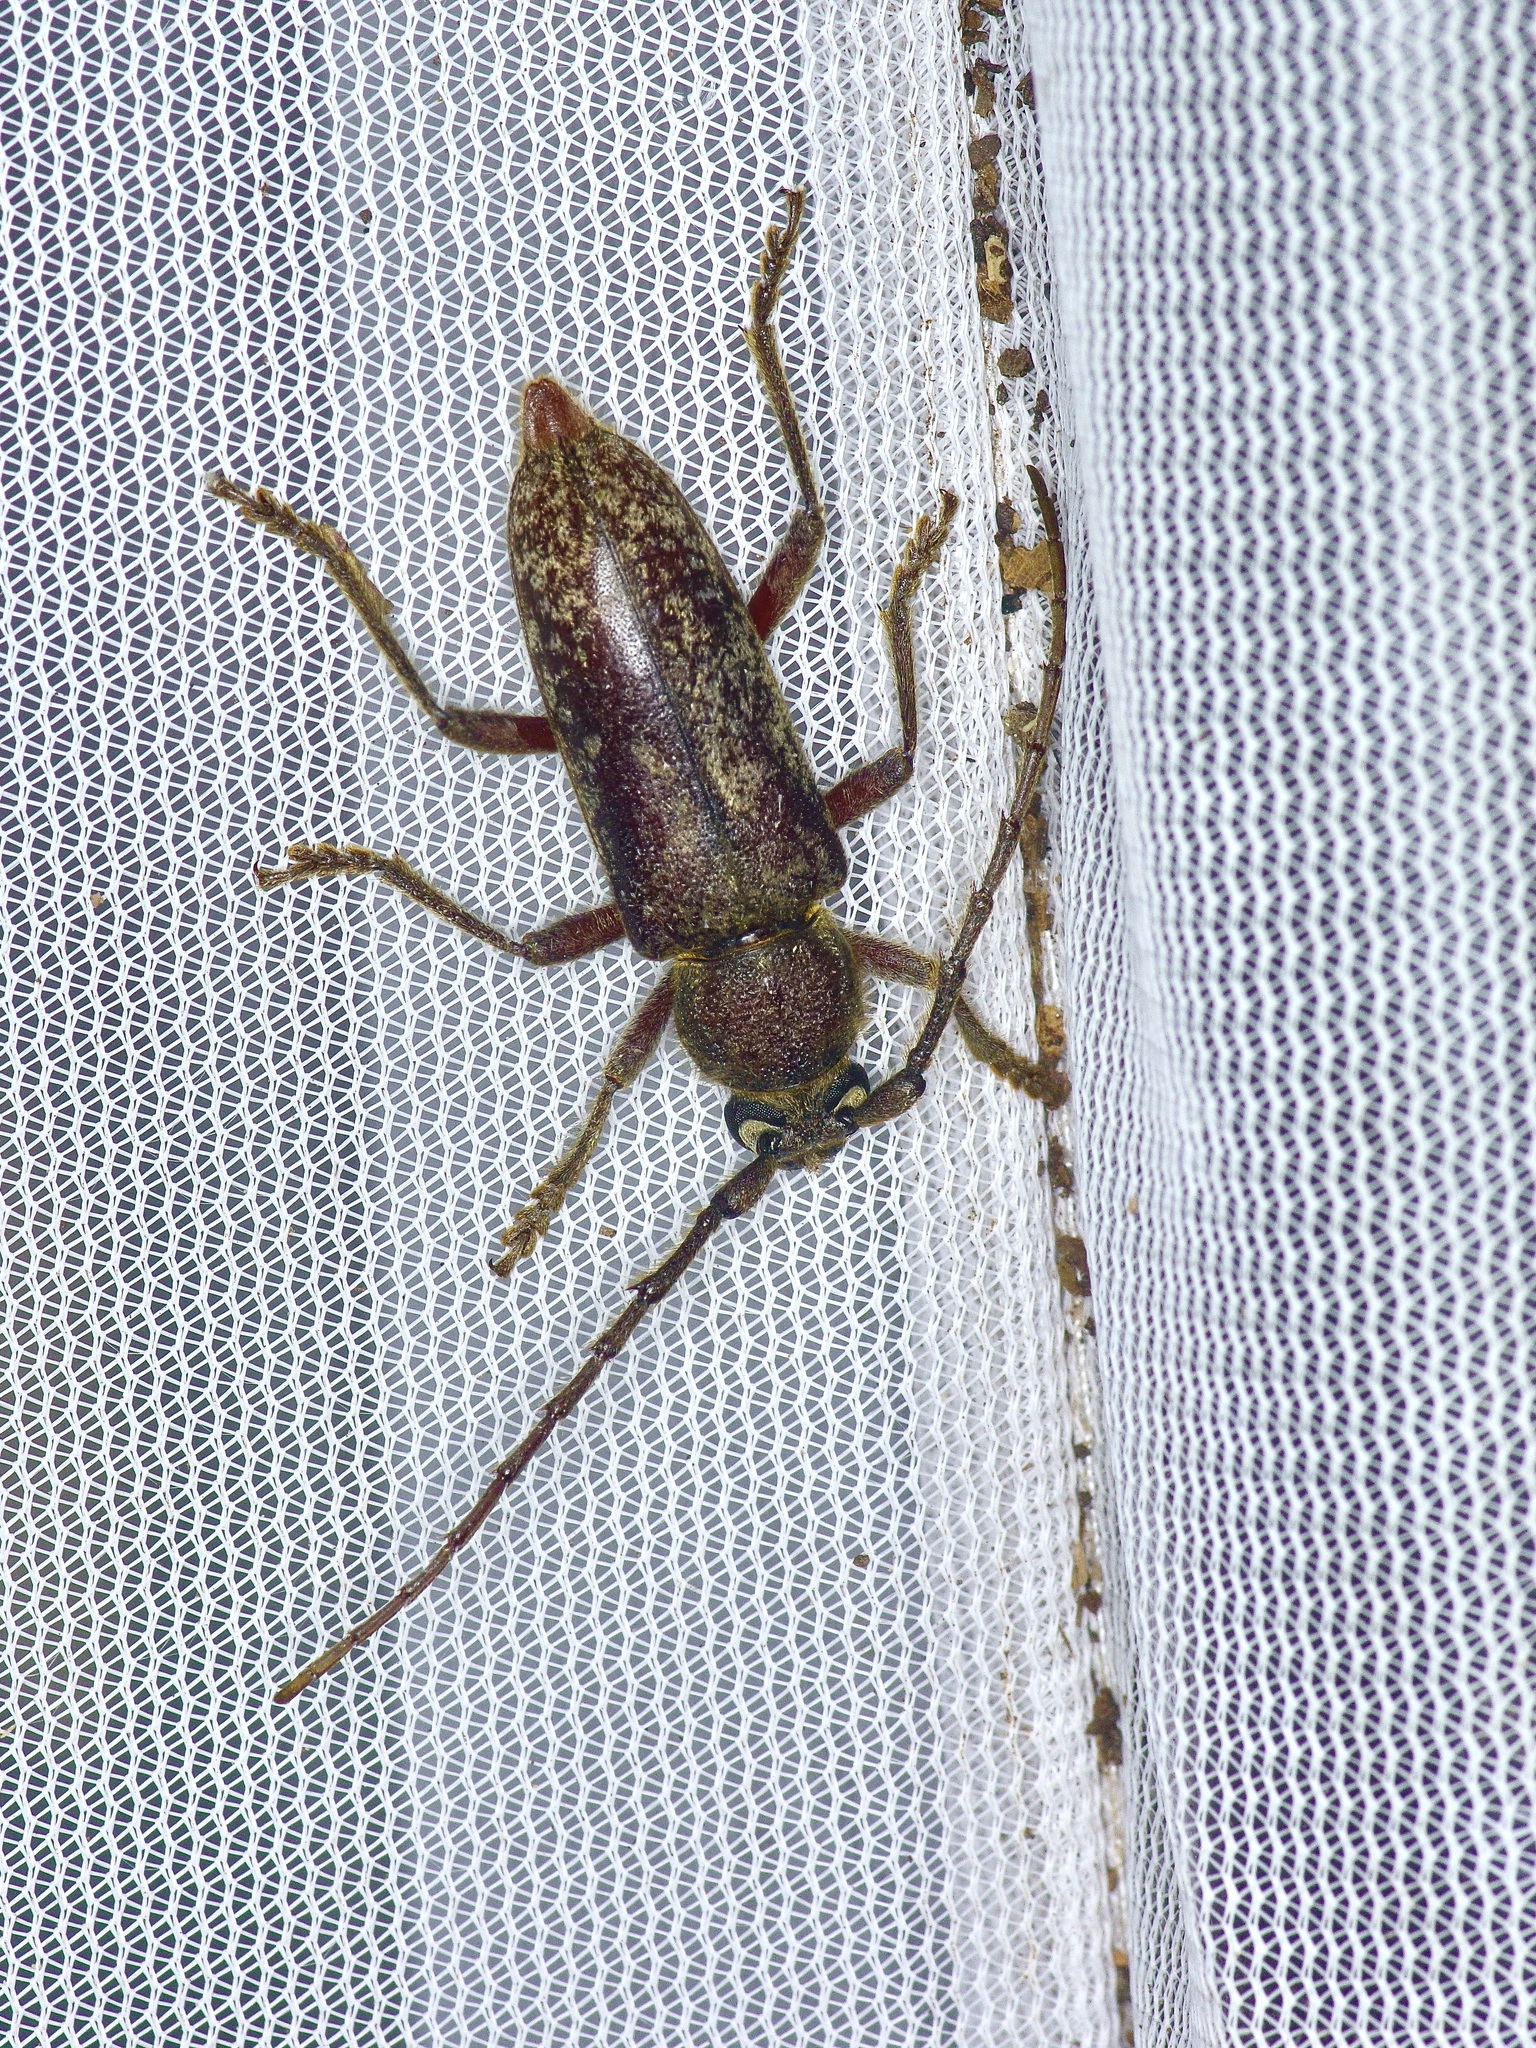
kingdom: Animalia
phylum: Arthropoda
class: Insecta
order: Coleoptera
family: Cerambycidae
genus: Enaphalodes
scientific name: Enaphalodes atomarius
